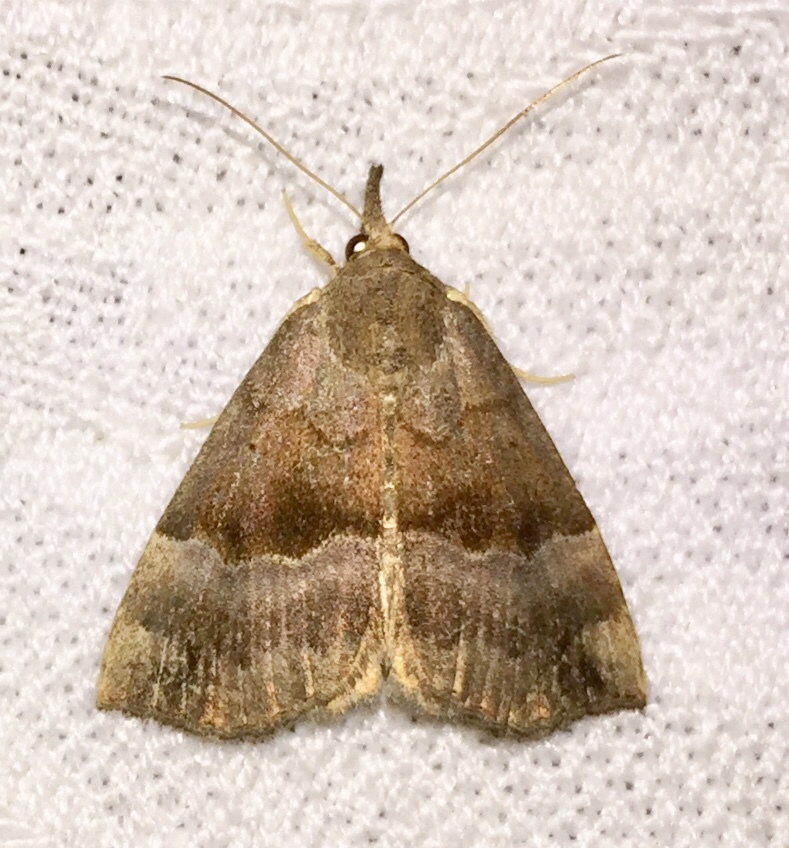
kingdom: Animalia
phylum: Arthropoda
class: Insecta
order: Lepidoptera
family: Erebidae
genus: Hypena
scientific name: Hypena madefactalis
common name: Gray-edged snout
